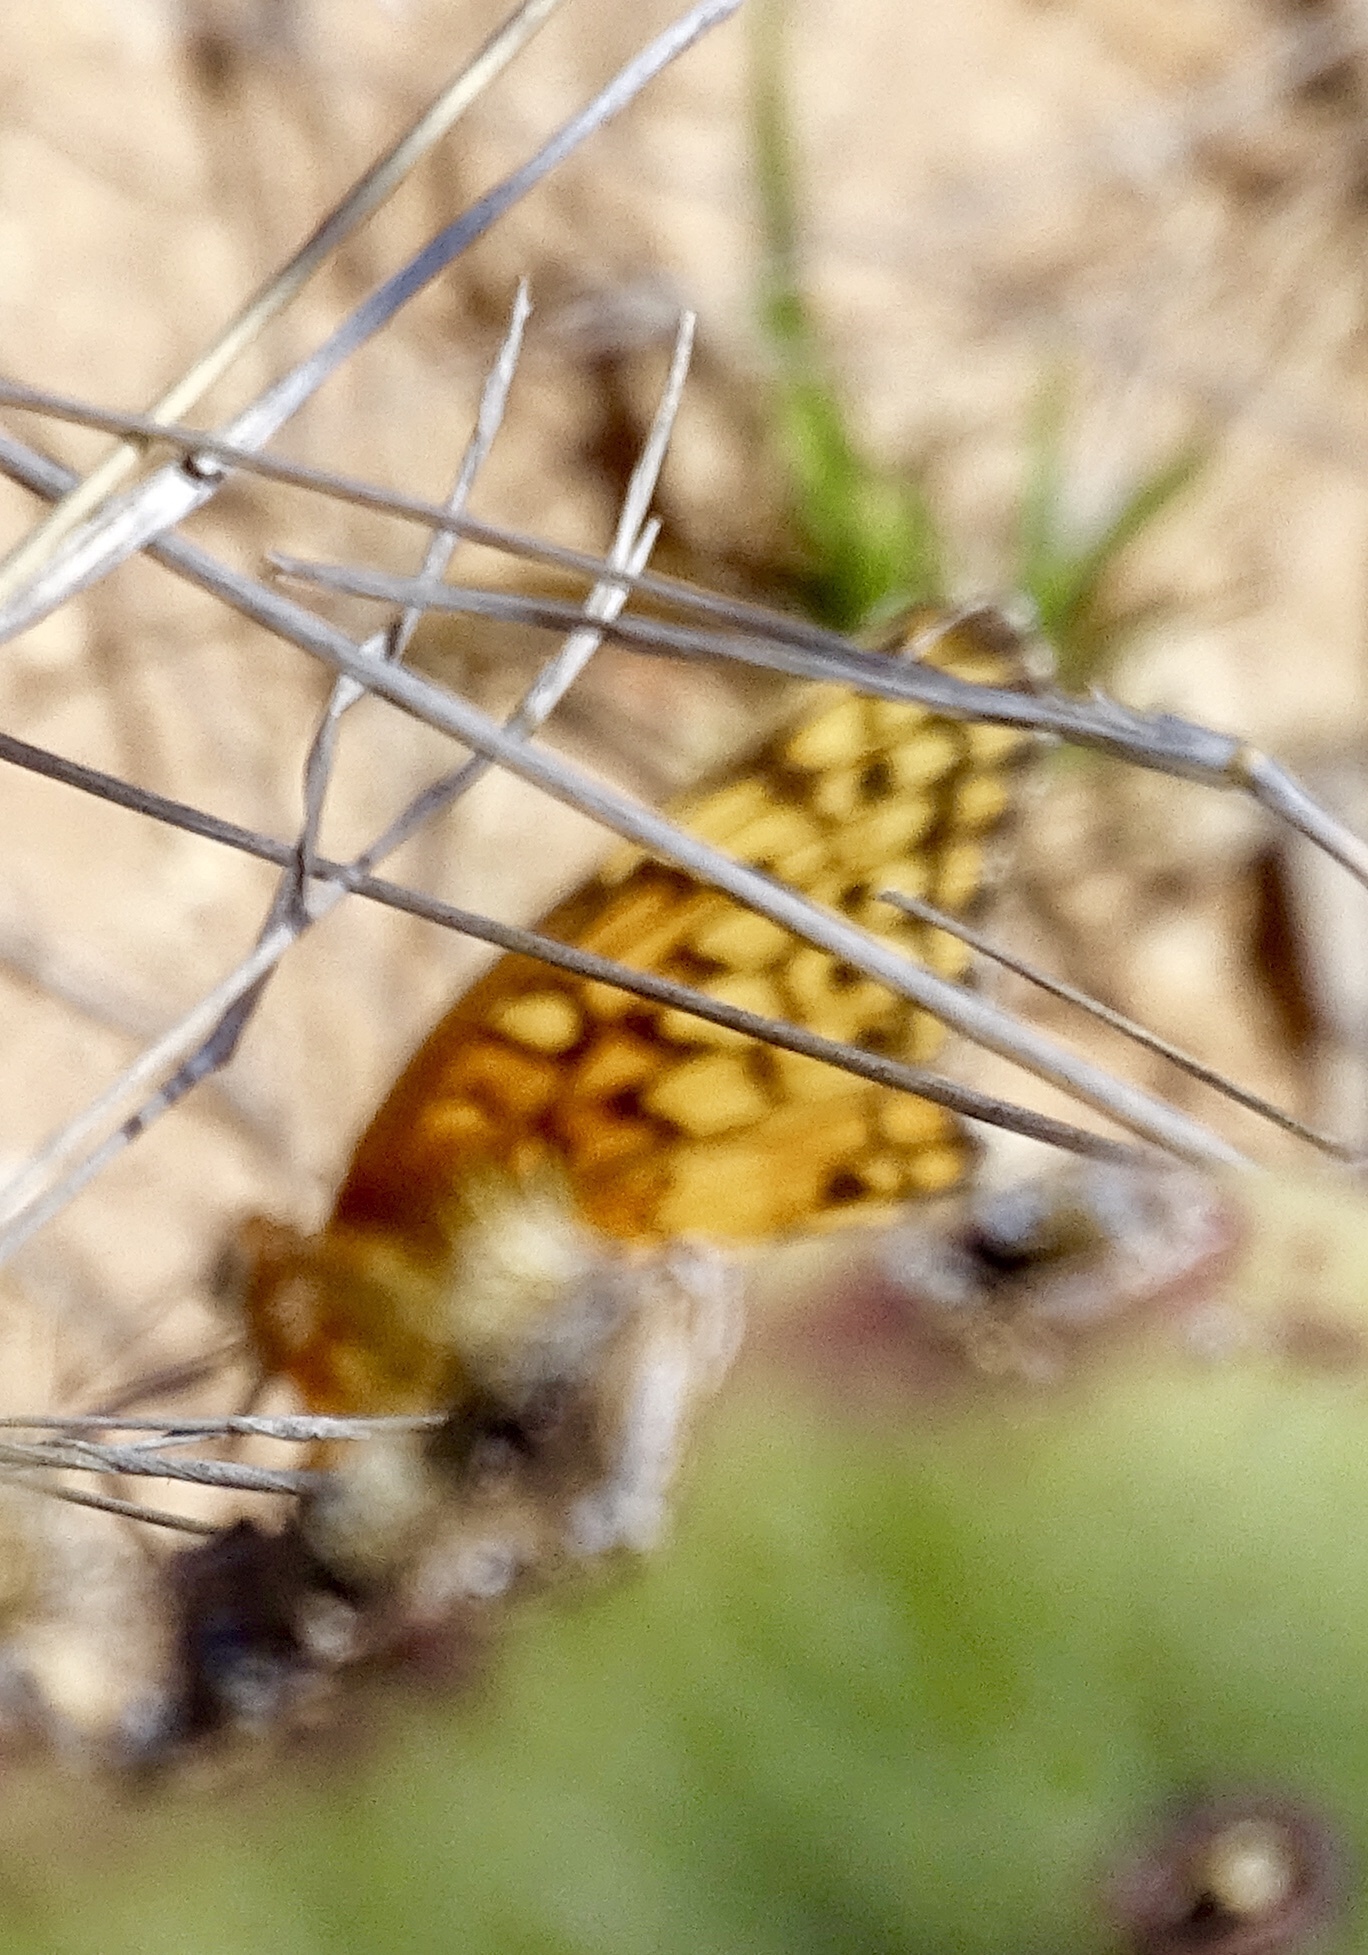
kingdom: Animalia
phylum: Arthropoda
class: Insecta
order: Lepidoptera
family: Nymphalidae
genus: Euptoieta
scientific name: Euptoieta claudia
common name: Variegated fritillary
